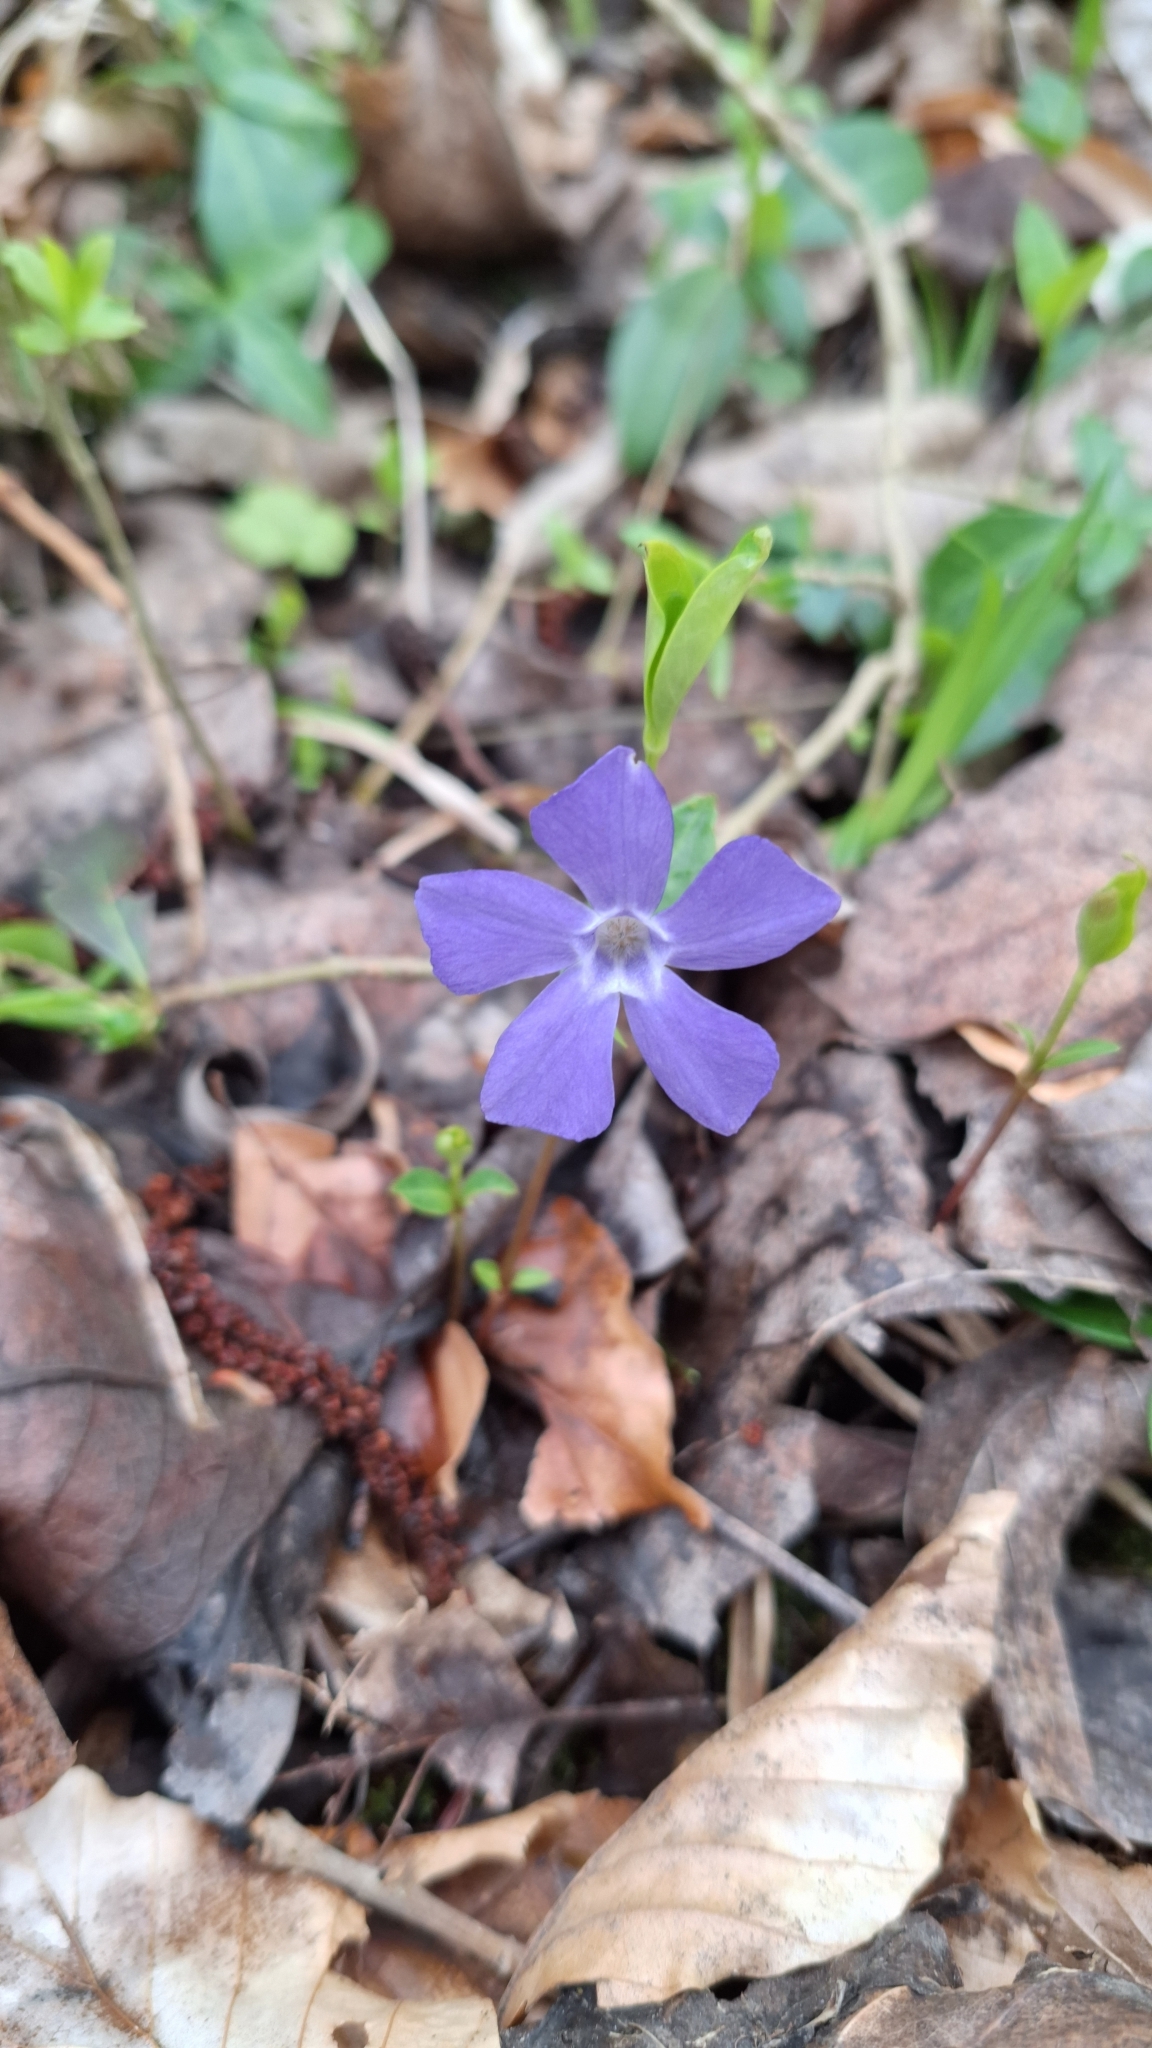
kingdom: Plantae
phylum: Tracheophyta
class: Magnoliopsida
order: Gentianales
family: Apocynaceae
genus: Vinca
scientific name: Vinca minor
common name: Lesser periwinkle
